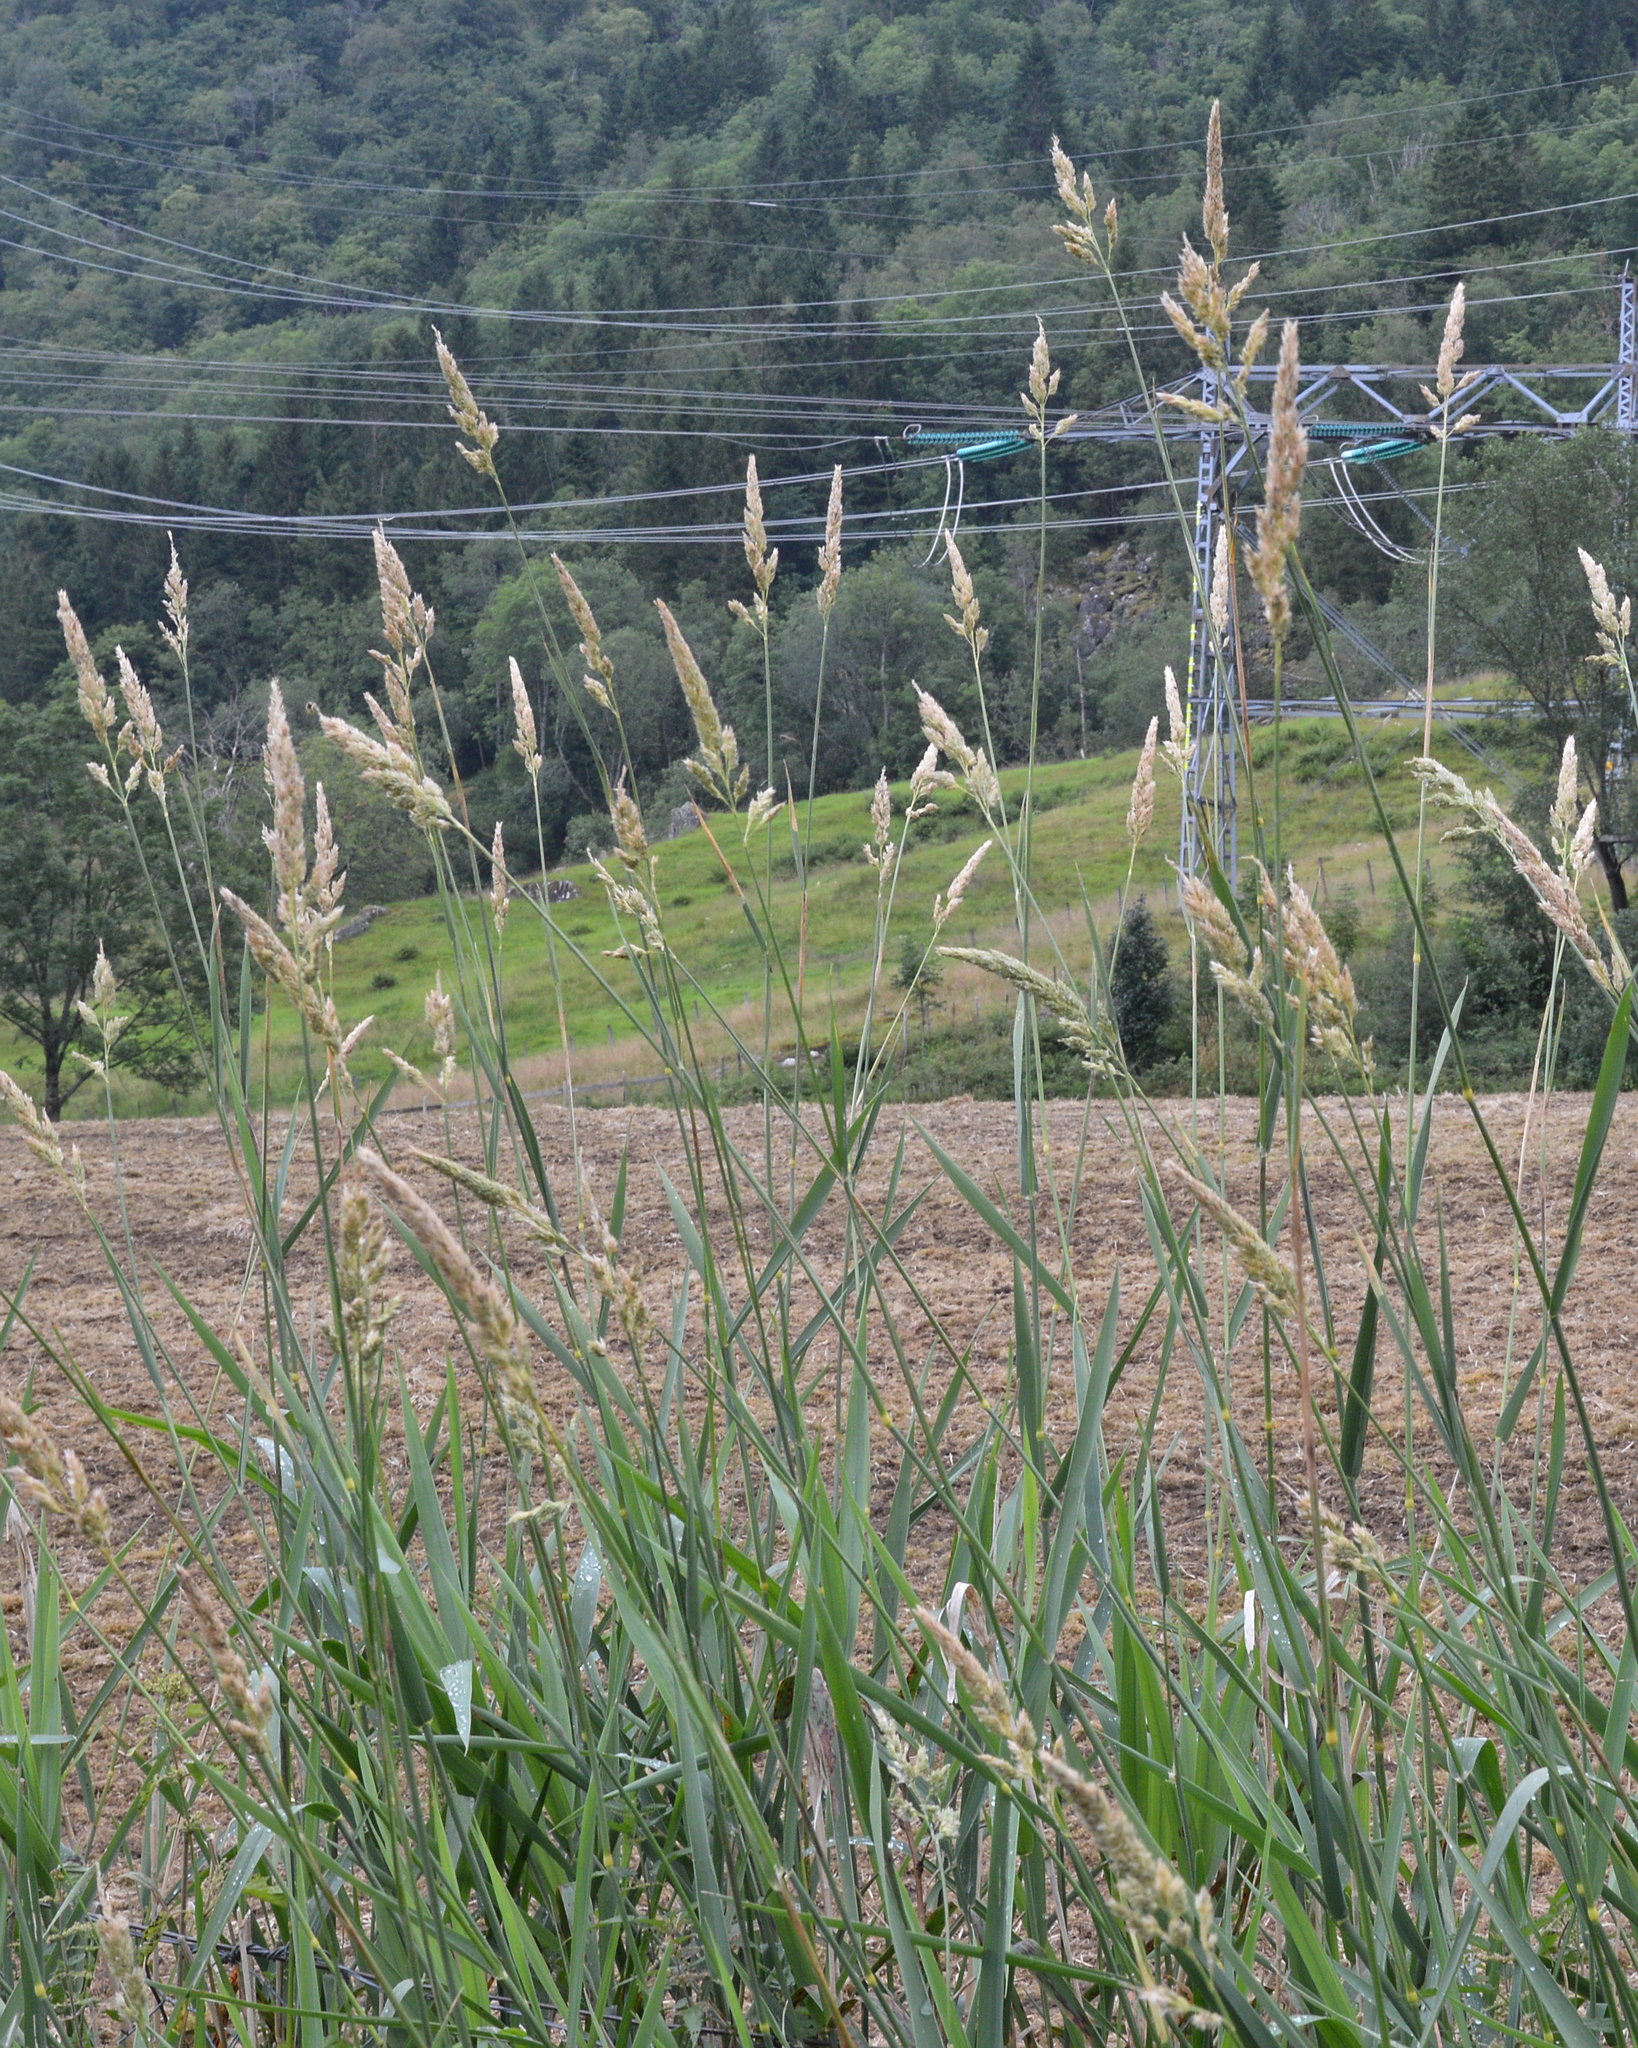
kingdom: Plantae
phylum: Tracheophyta
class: Liliopsida
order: Poales
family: Poaceae
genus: Phalaris
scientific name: Phalaris arundinacea
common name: Reed canary-grass
